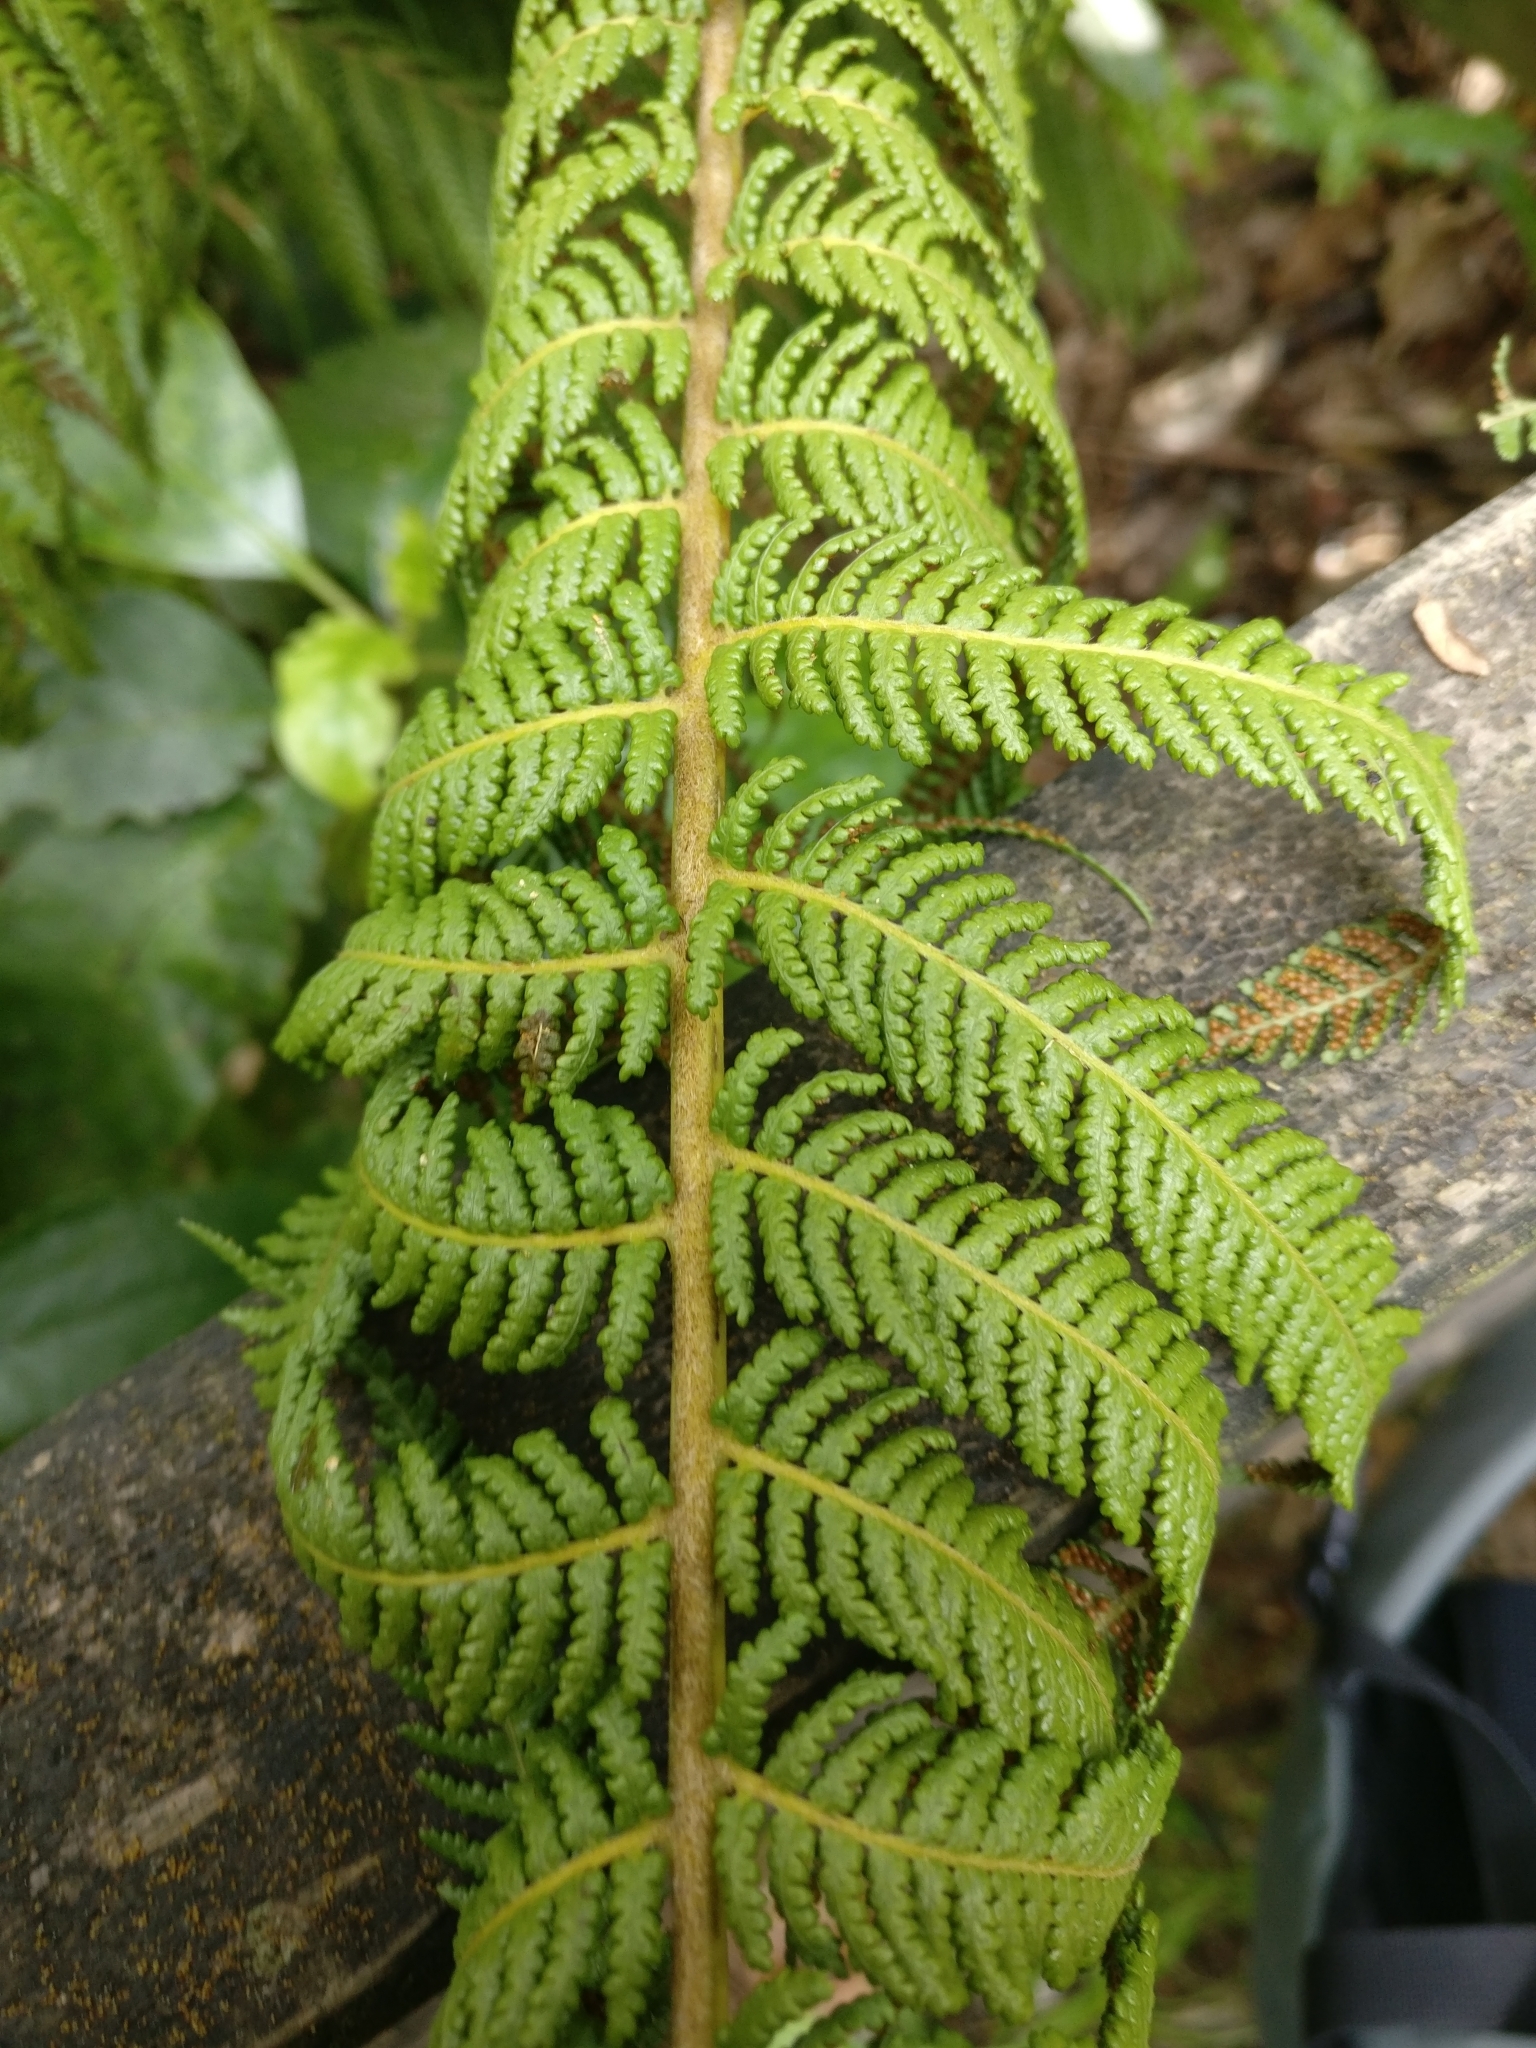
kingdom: Plantae
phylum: Tracheophyta
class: Polypodiopsida
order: Cyatheales
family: Cyatheaceae
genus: Sphaeropteris
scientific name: Sphaeropteris medullaris
